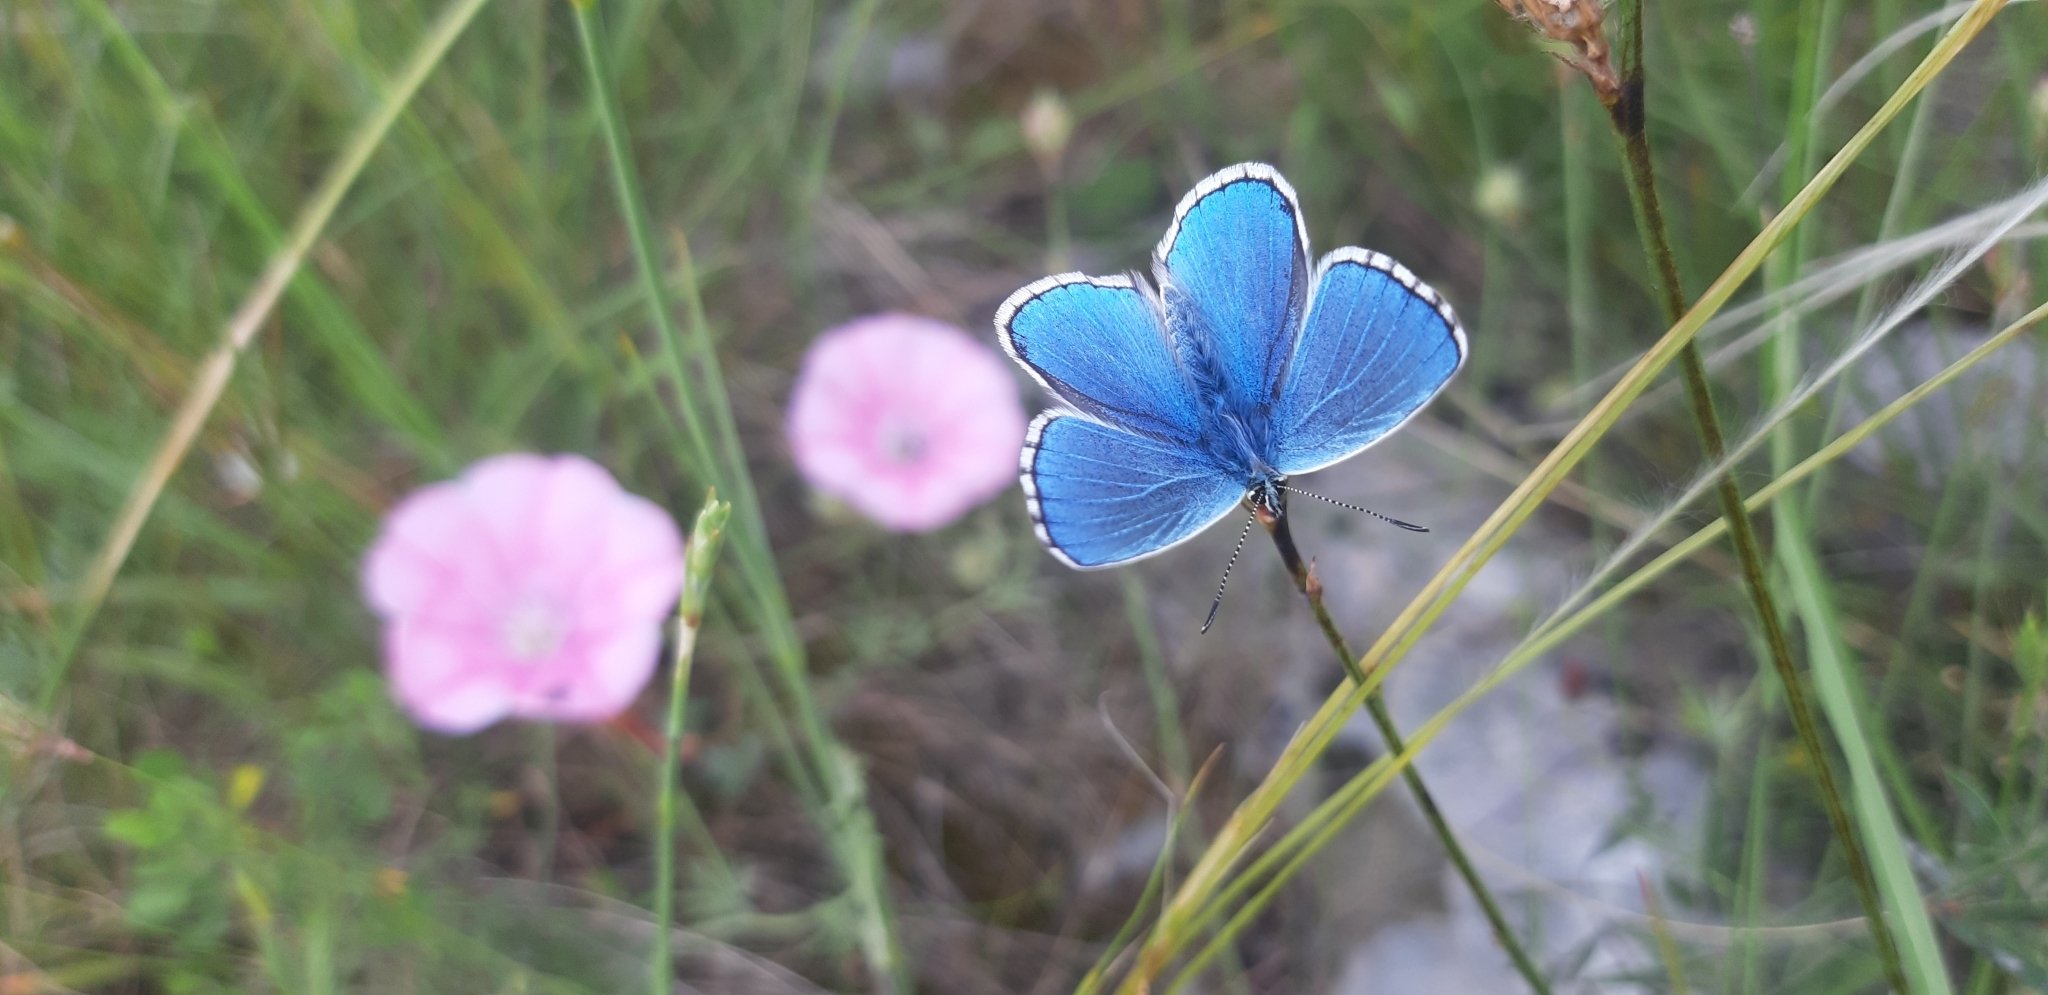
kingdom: Animalia
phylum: Arthropoda
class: Insecta
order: Lepidoptera
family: Lycaenidae
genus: Lysandra
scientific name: Lysandra bellargus
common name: Adonis blue
